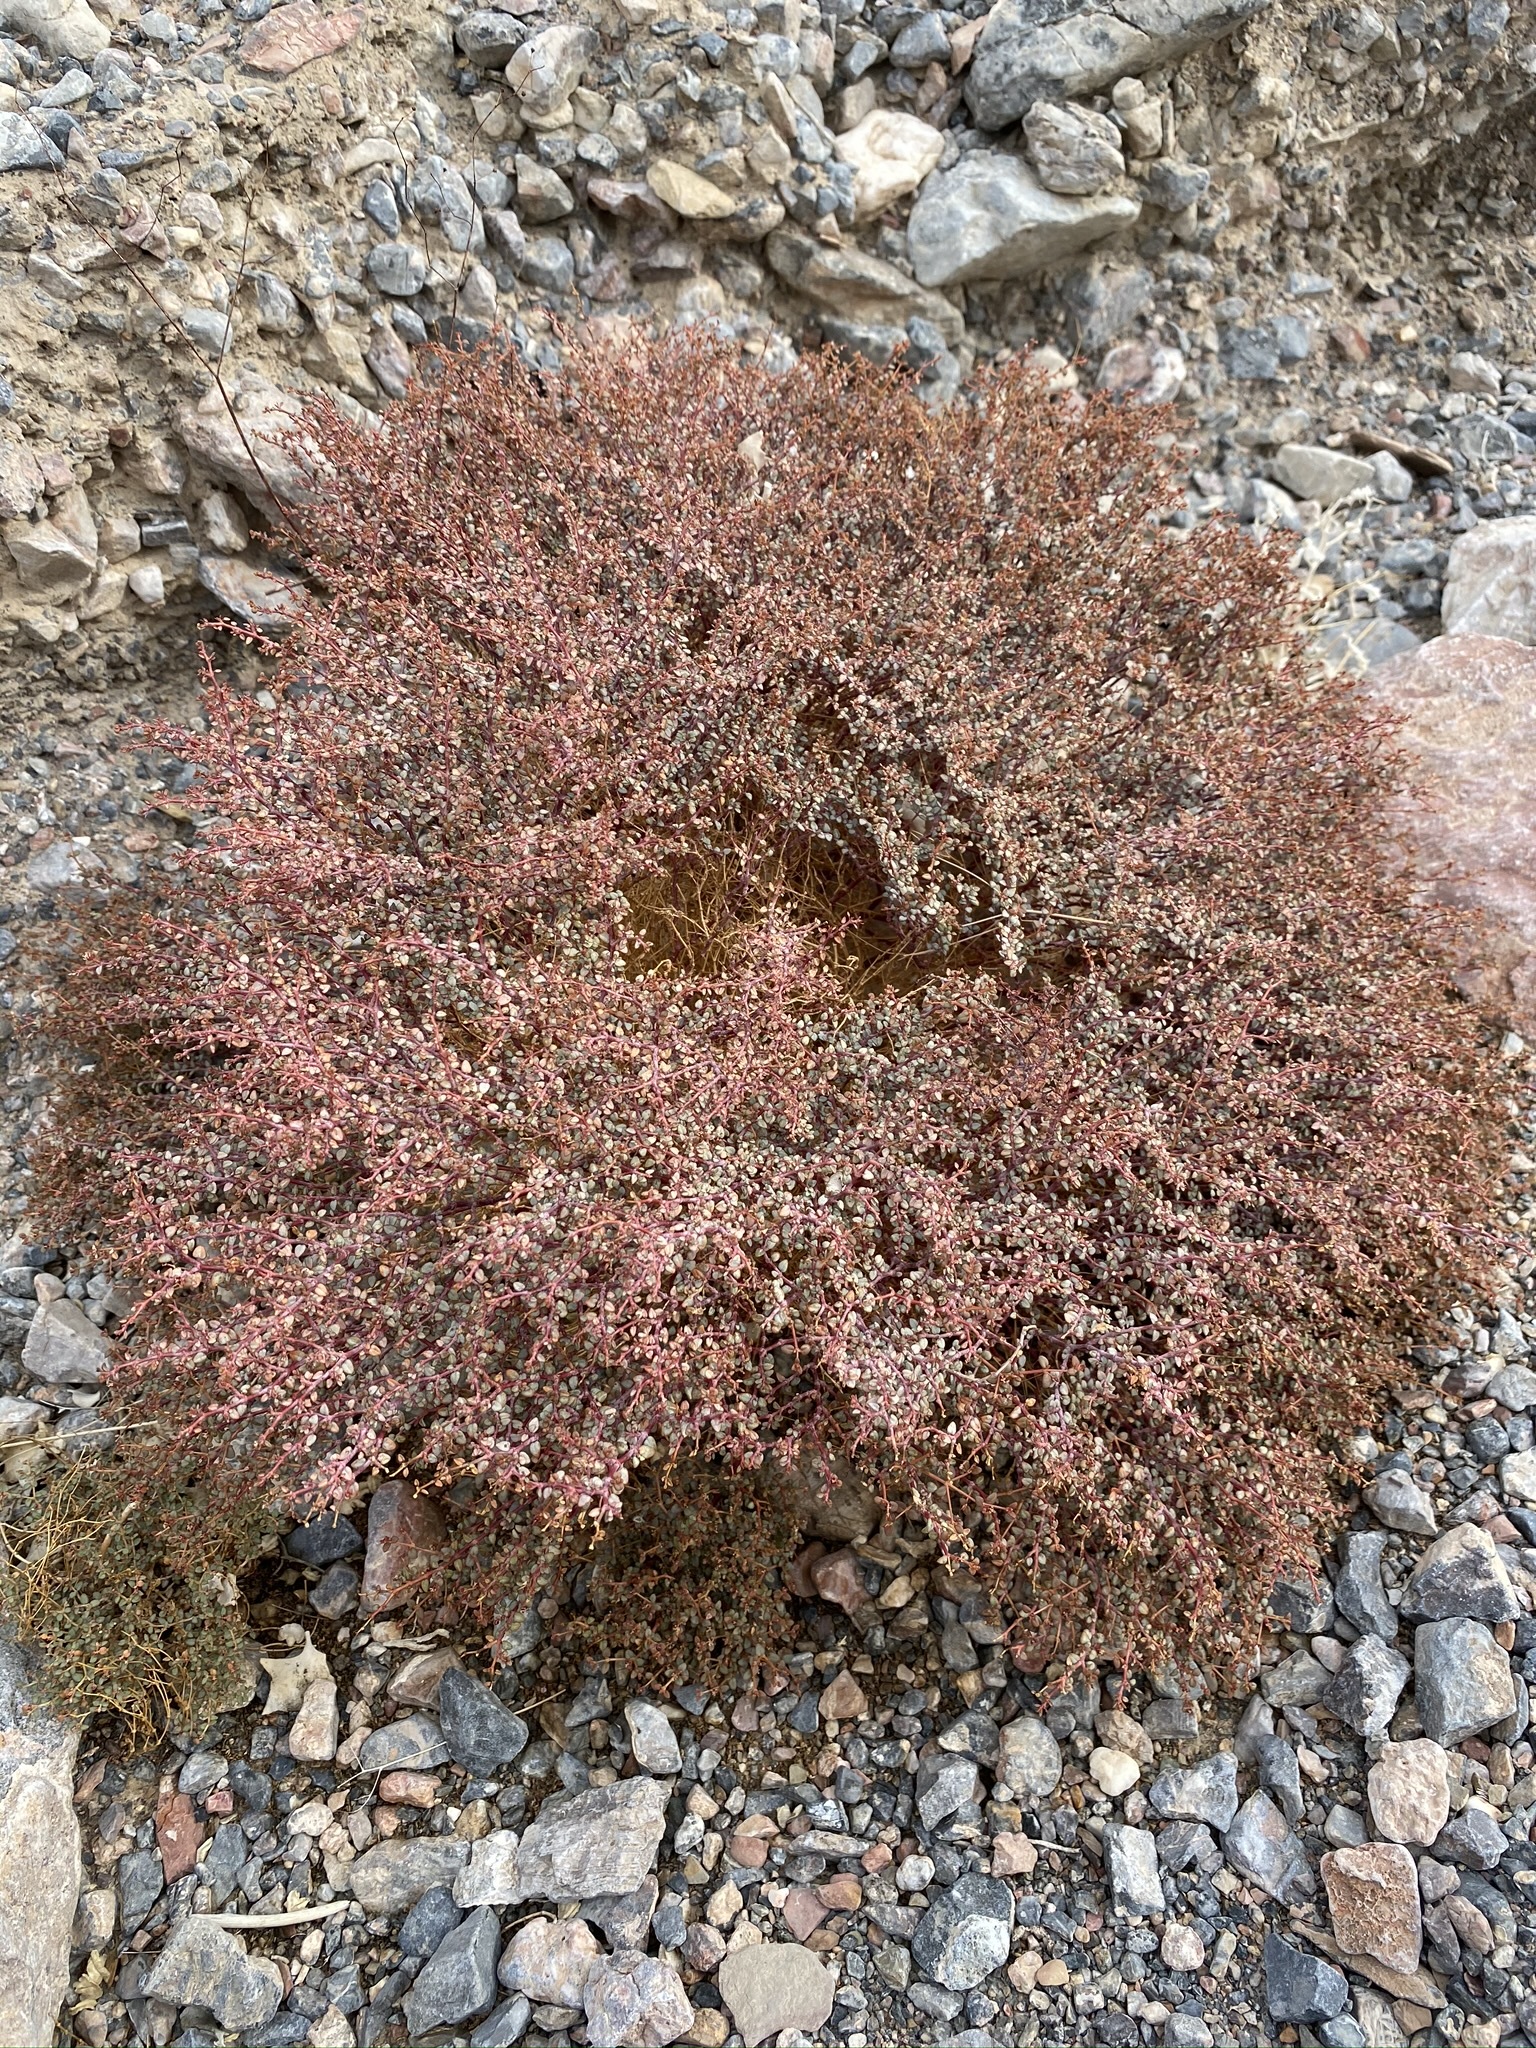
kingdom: Plantae
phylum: Tracheophyta
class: Magnoliopsida
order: Malpighiales
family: Euphorbiaceae
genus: Euphorbia
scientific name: Euphorbia parishii
